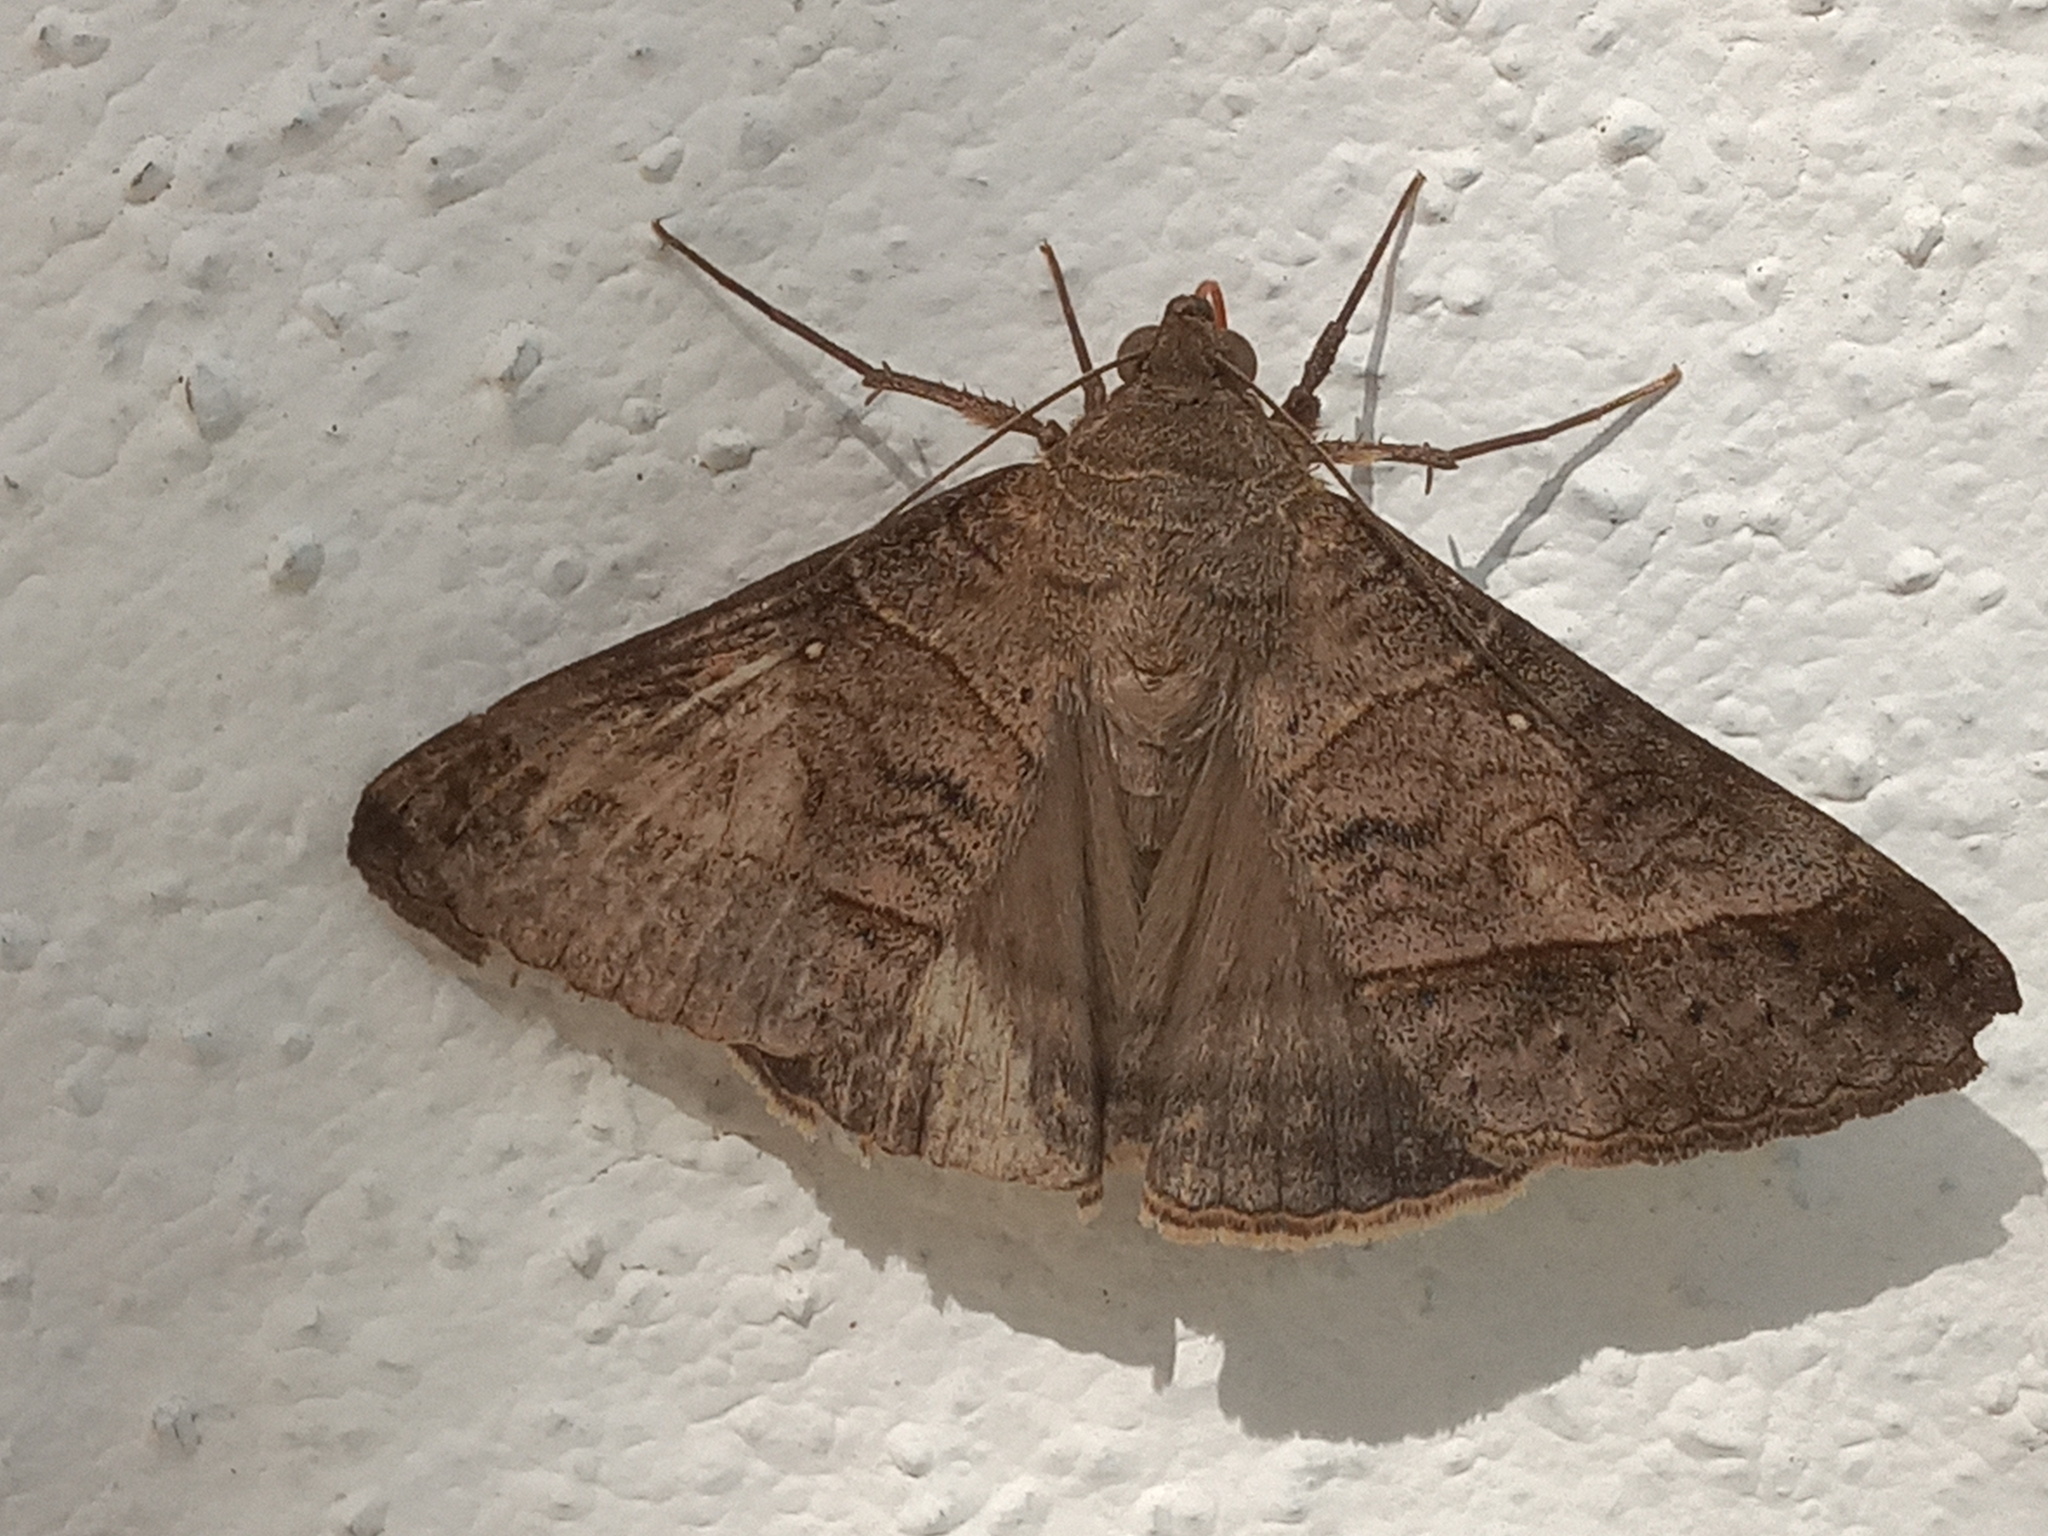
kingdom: Animalia
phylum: Arthropoda
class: Insecta
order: Lepidoptera
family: Erebidae
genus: Mocis
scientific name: Mocis latipes
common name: Striped grass looper
